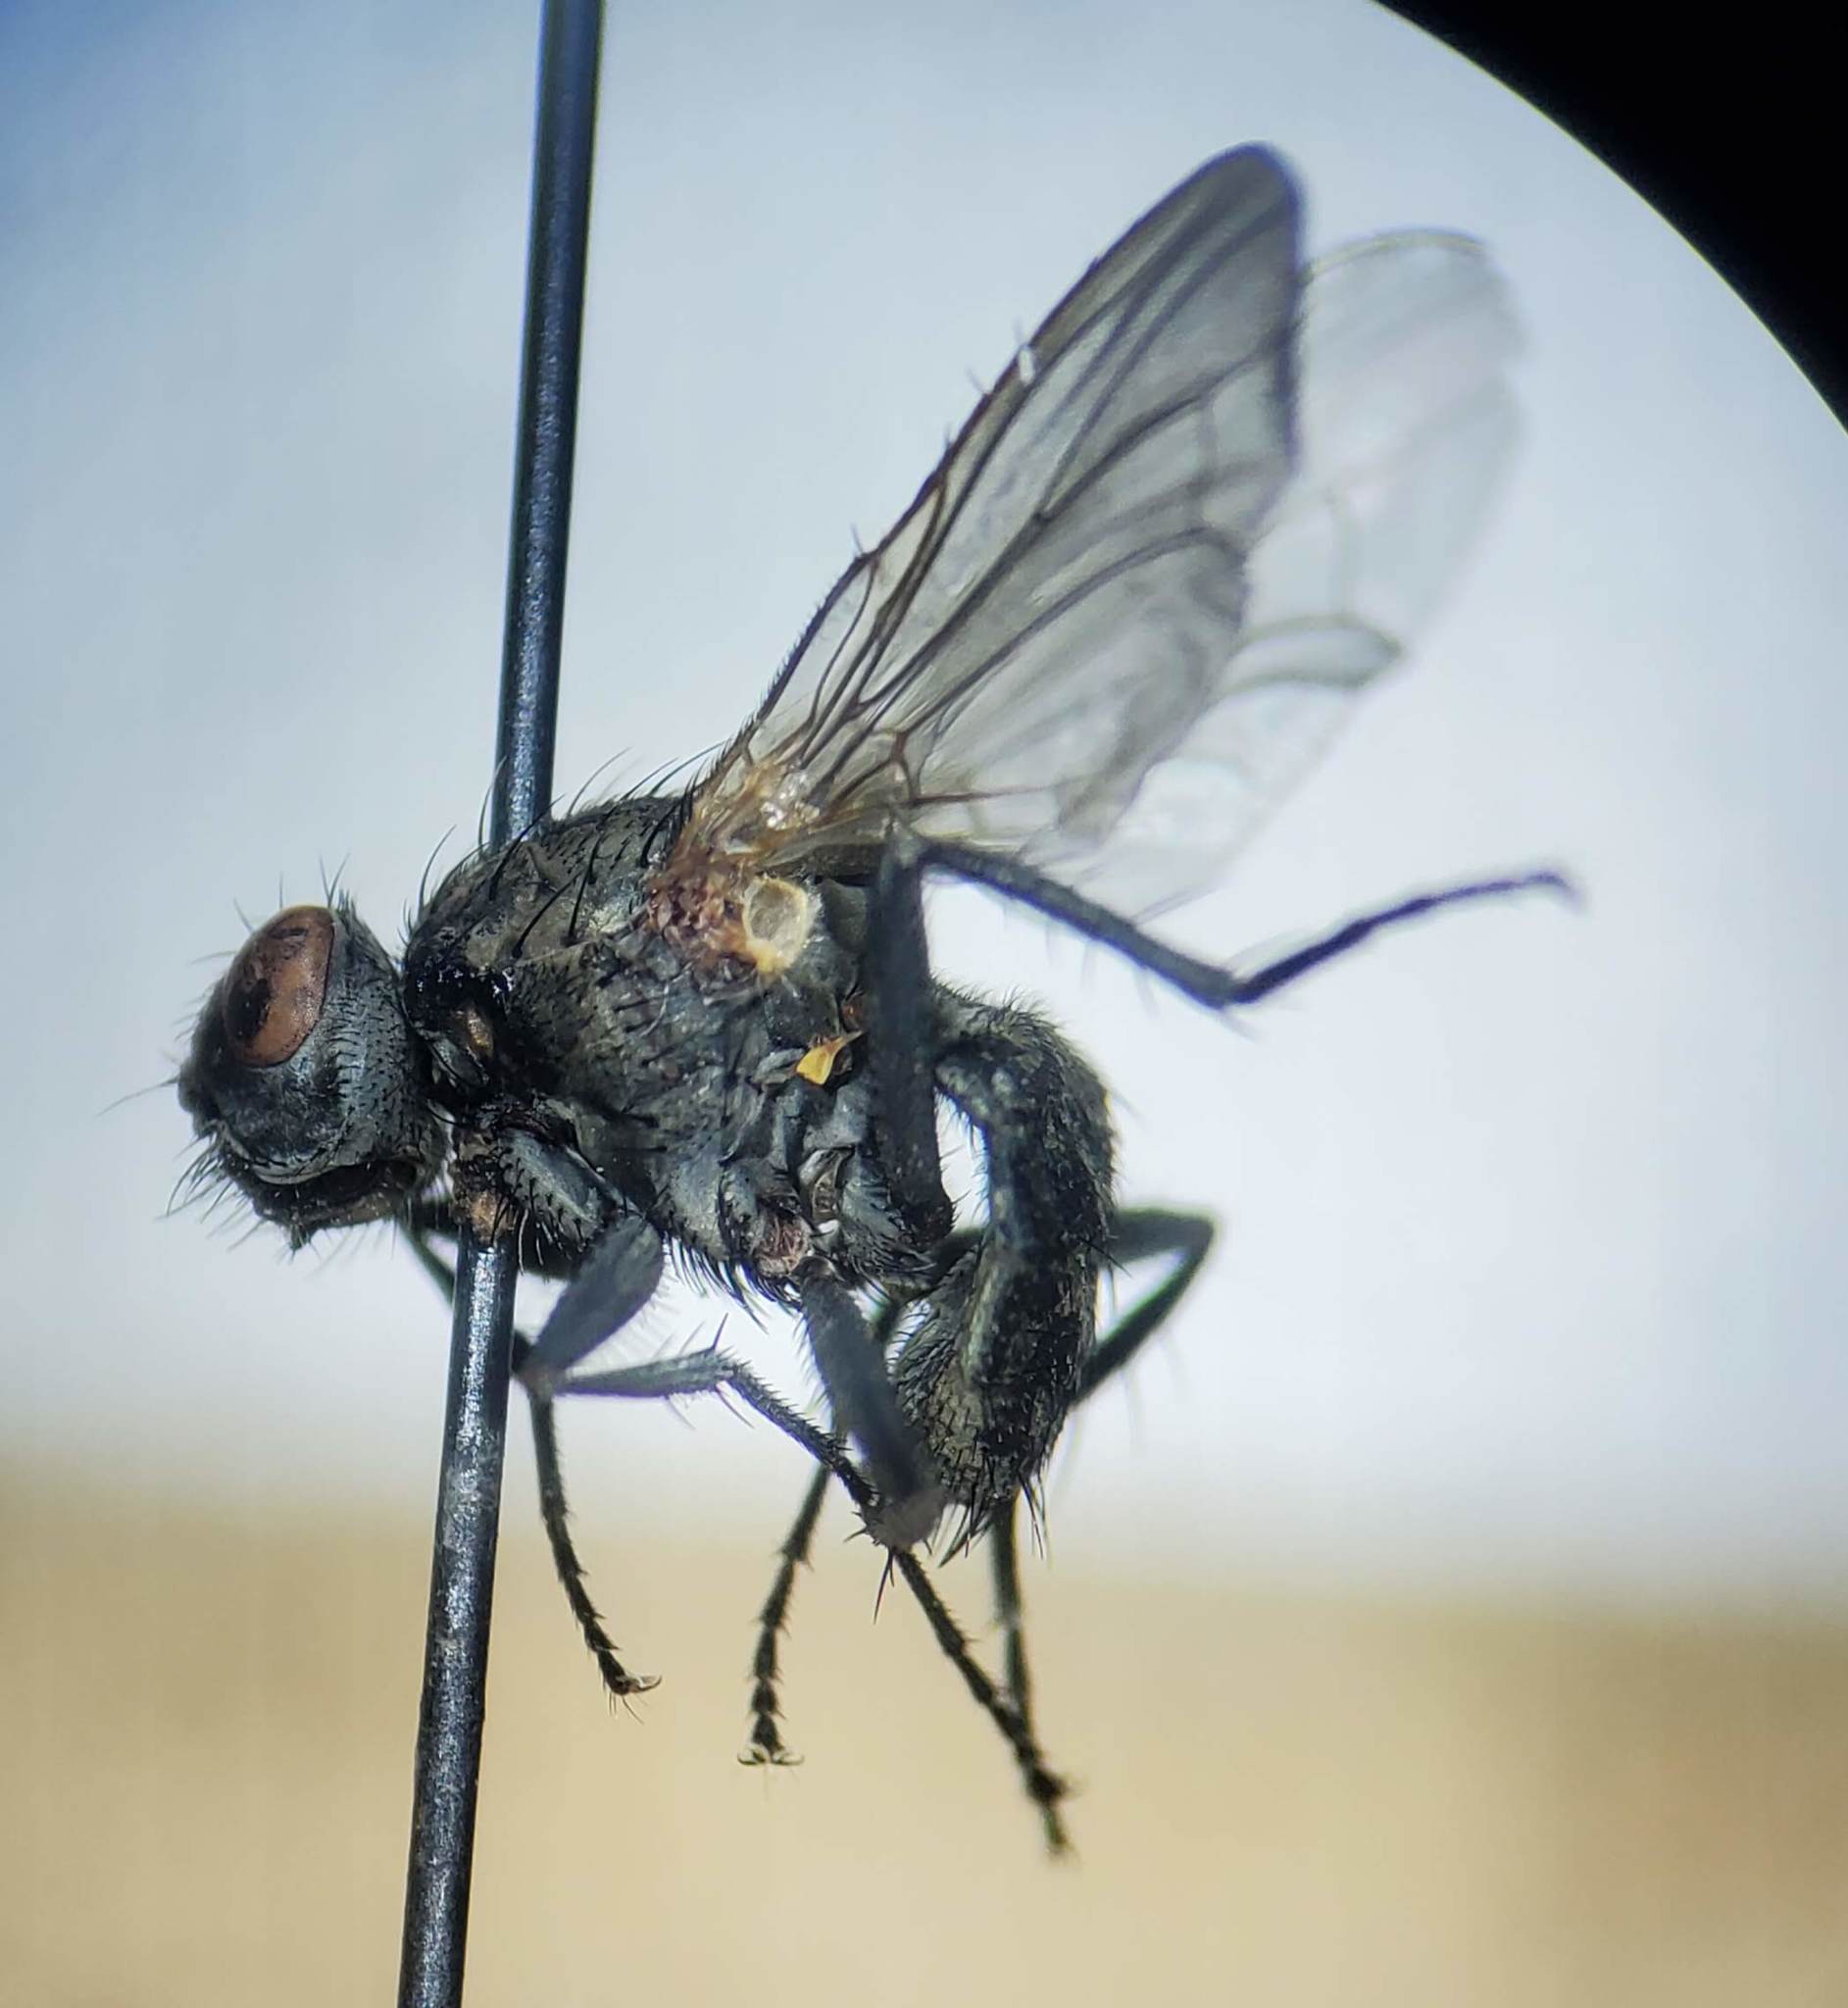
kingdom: Animalia
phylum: Arthropoda
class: Insecta
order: Diptera
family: Anthomyiidae
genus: Fucellia
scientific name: Fucellia costalis
